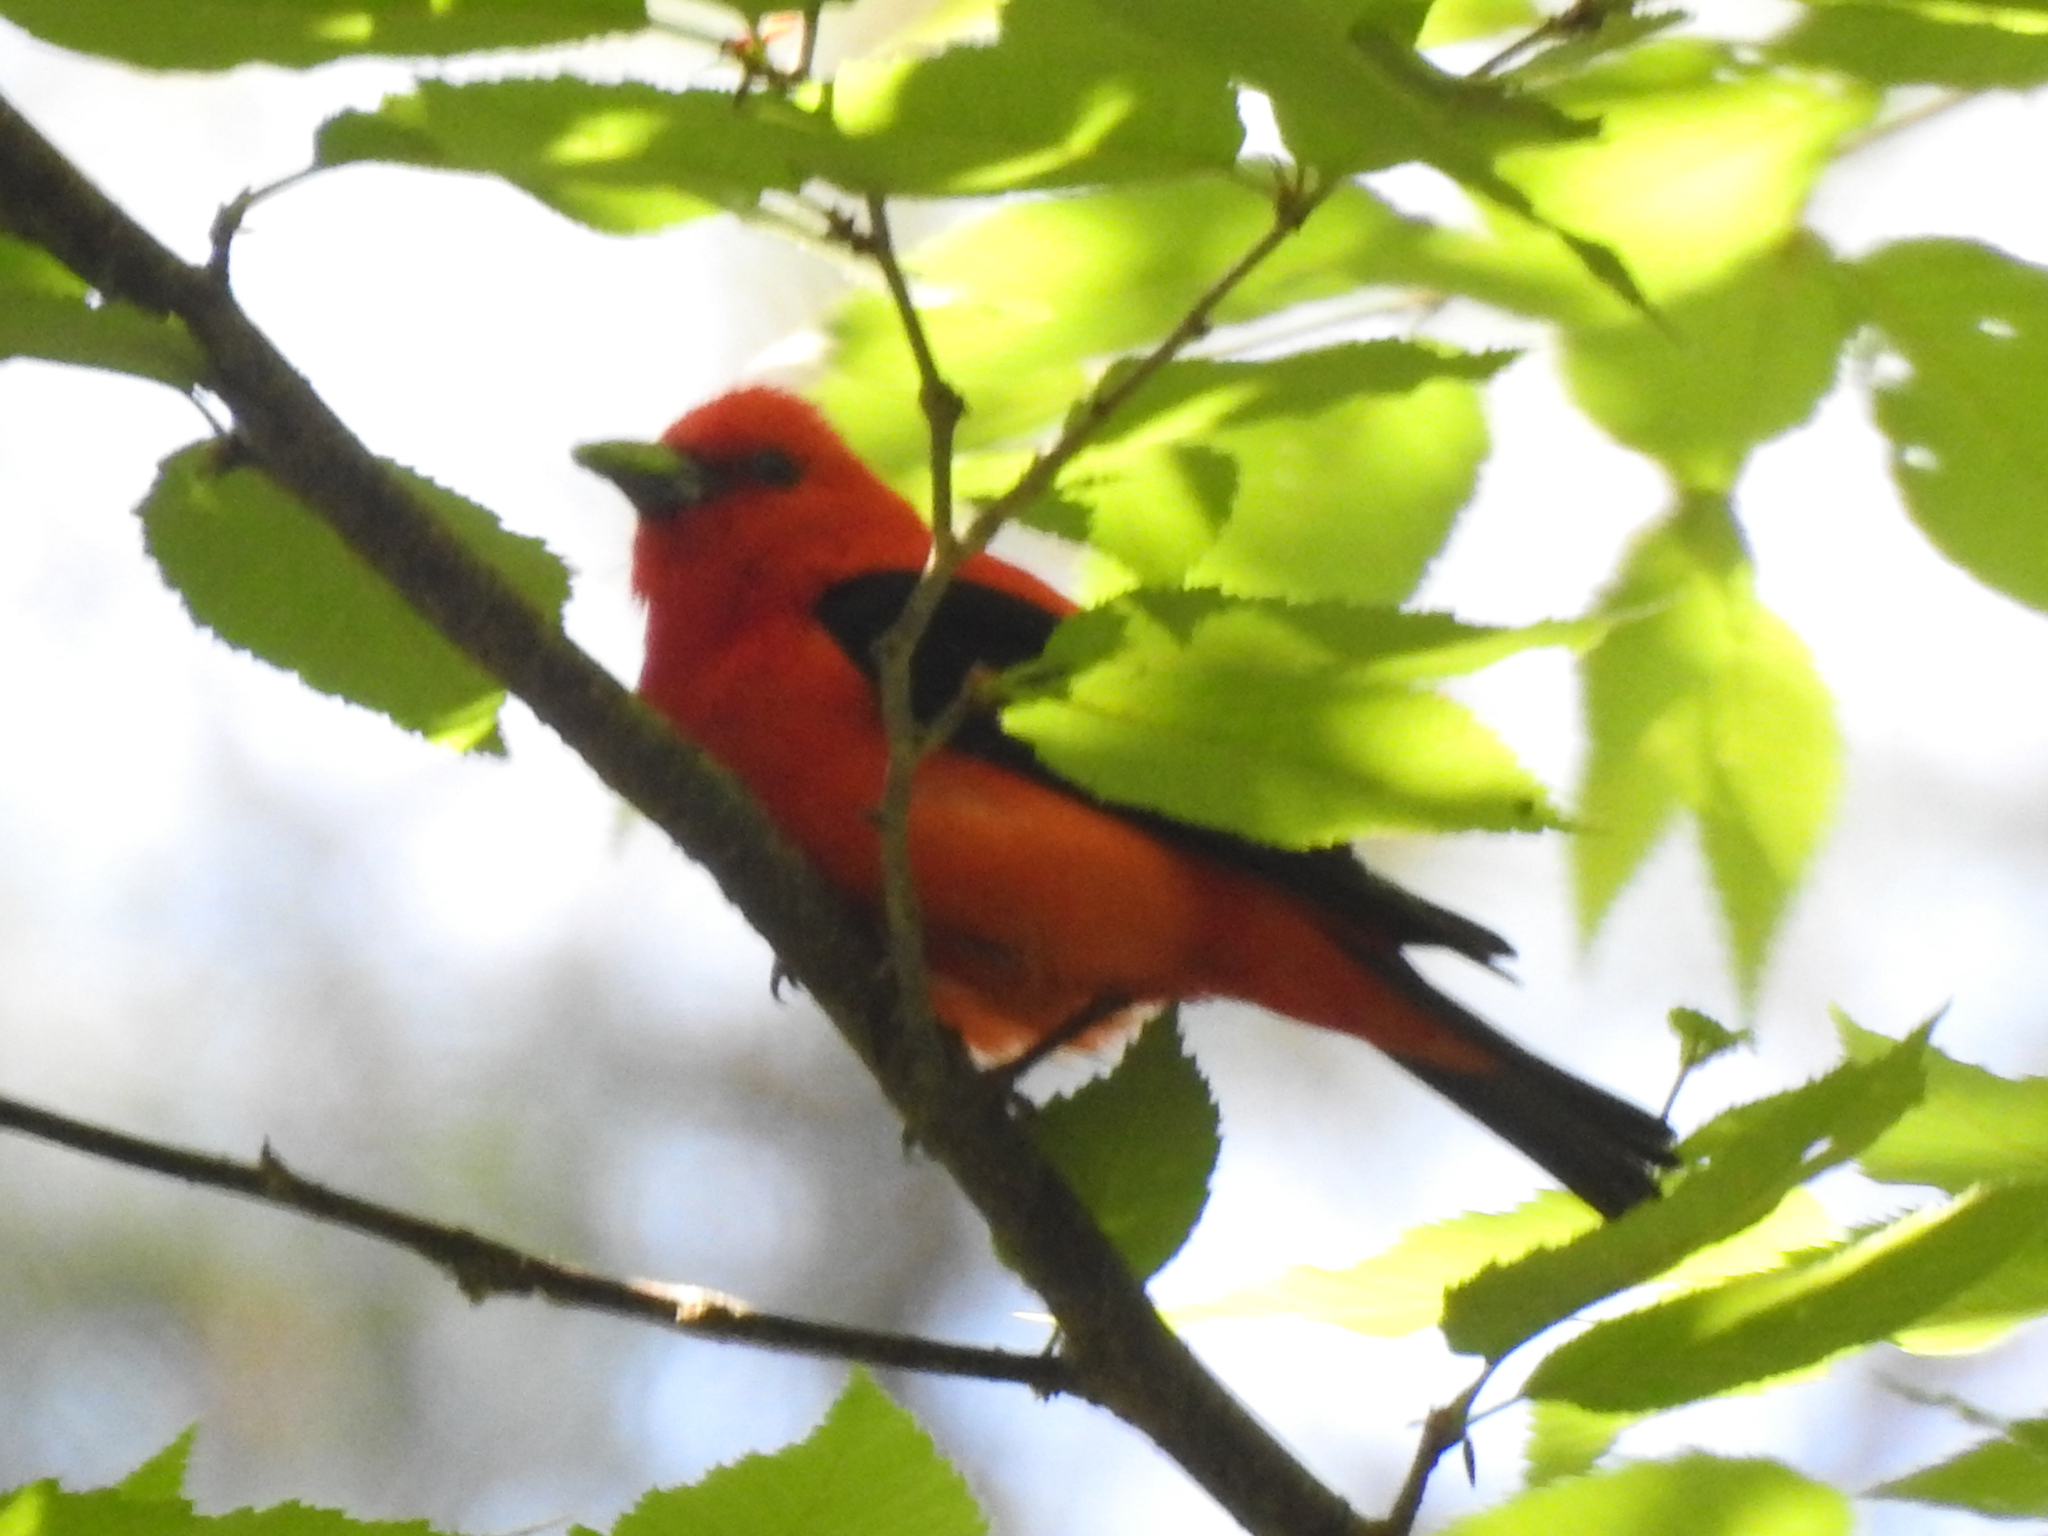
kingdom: Animalia
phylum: Chordata
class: Aves
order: Passeriformes
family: Cardinalidae
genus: Piranga
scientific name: Piranga olivacea
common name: Scarlet tanager
